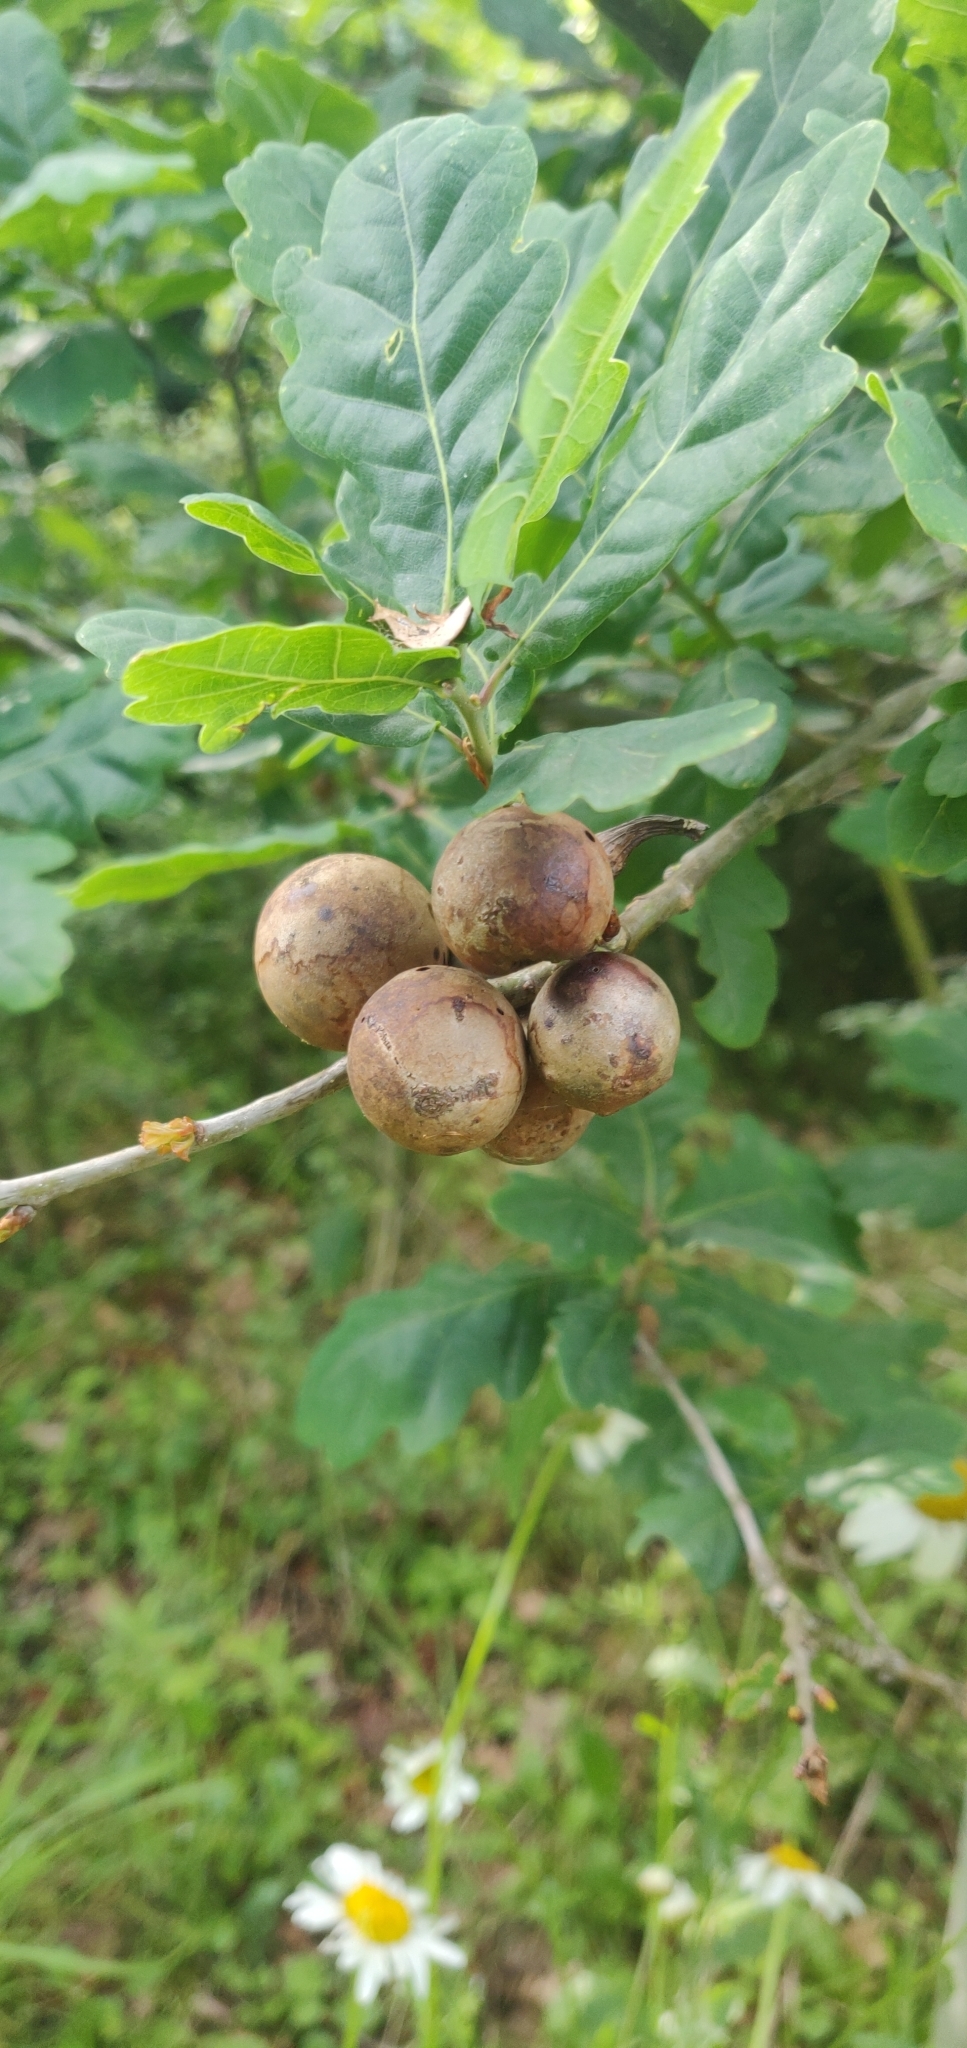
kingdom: Animalia
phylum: Arthropoda
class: Insecta
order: Hymenoptera
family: Cynipidae
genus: Andricus
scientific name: Andricus kollari
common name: Marble gall
